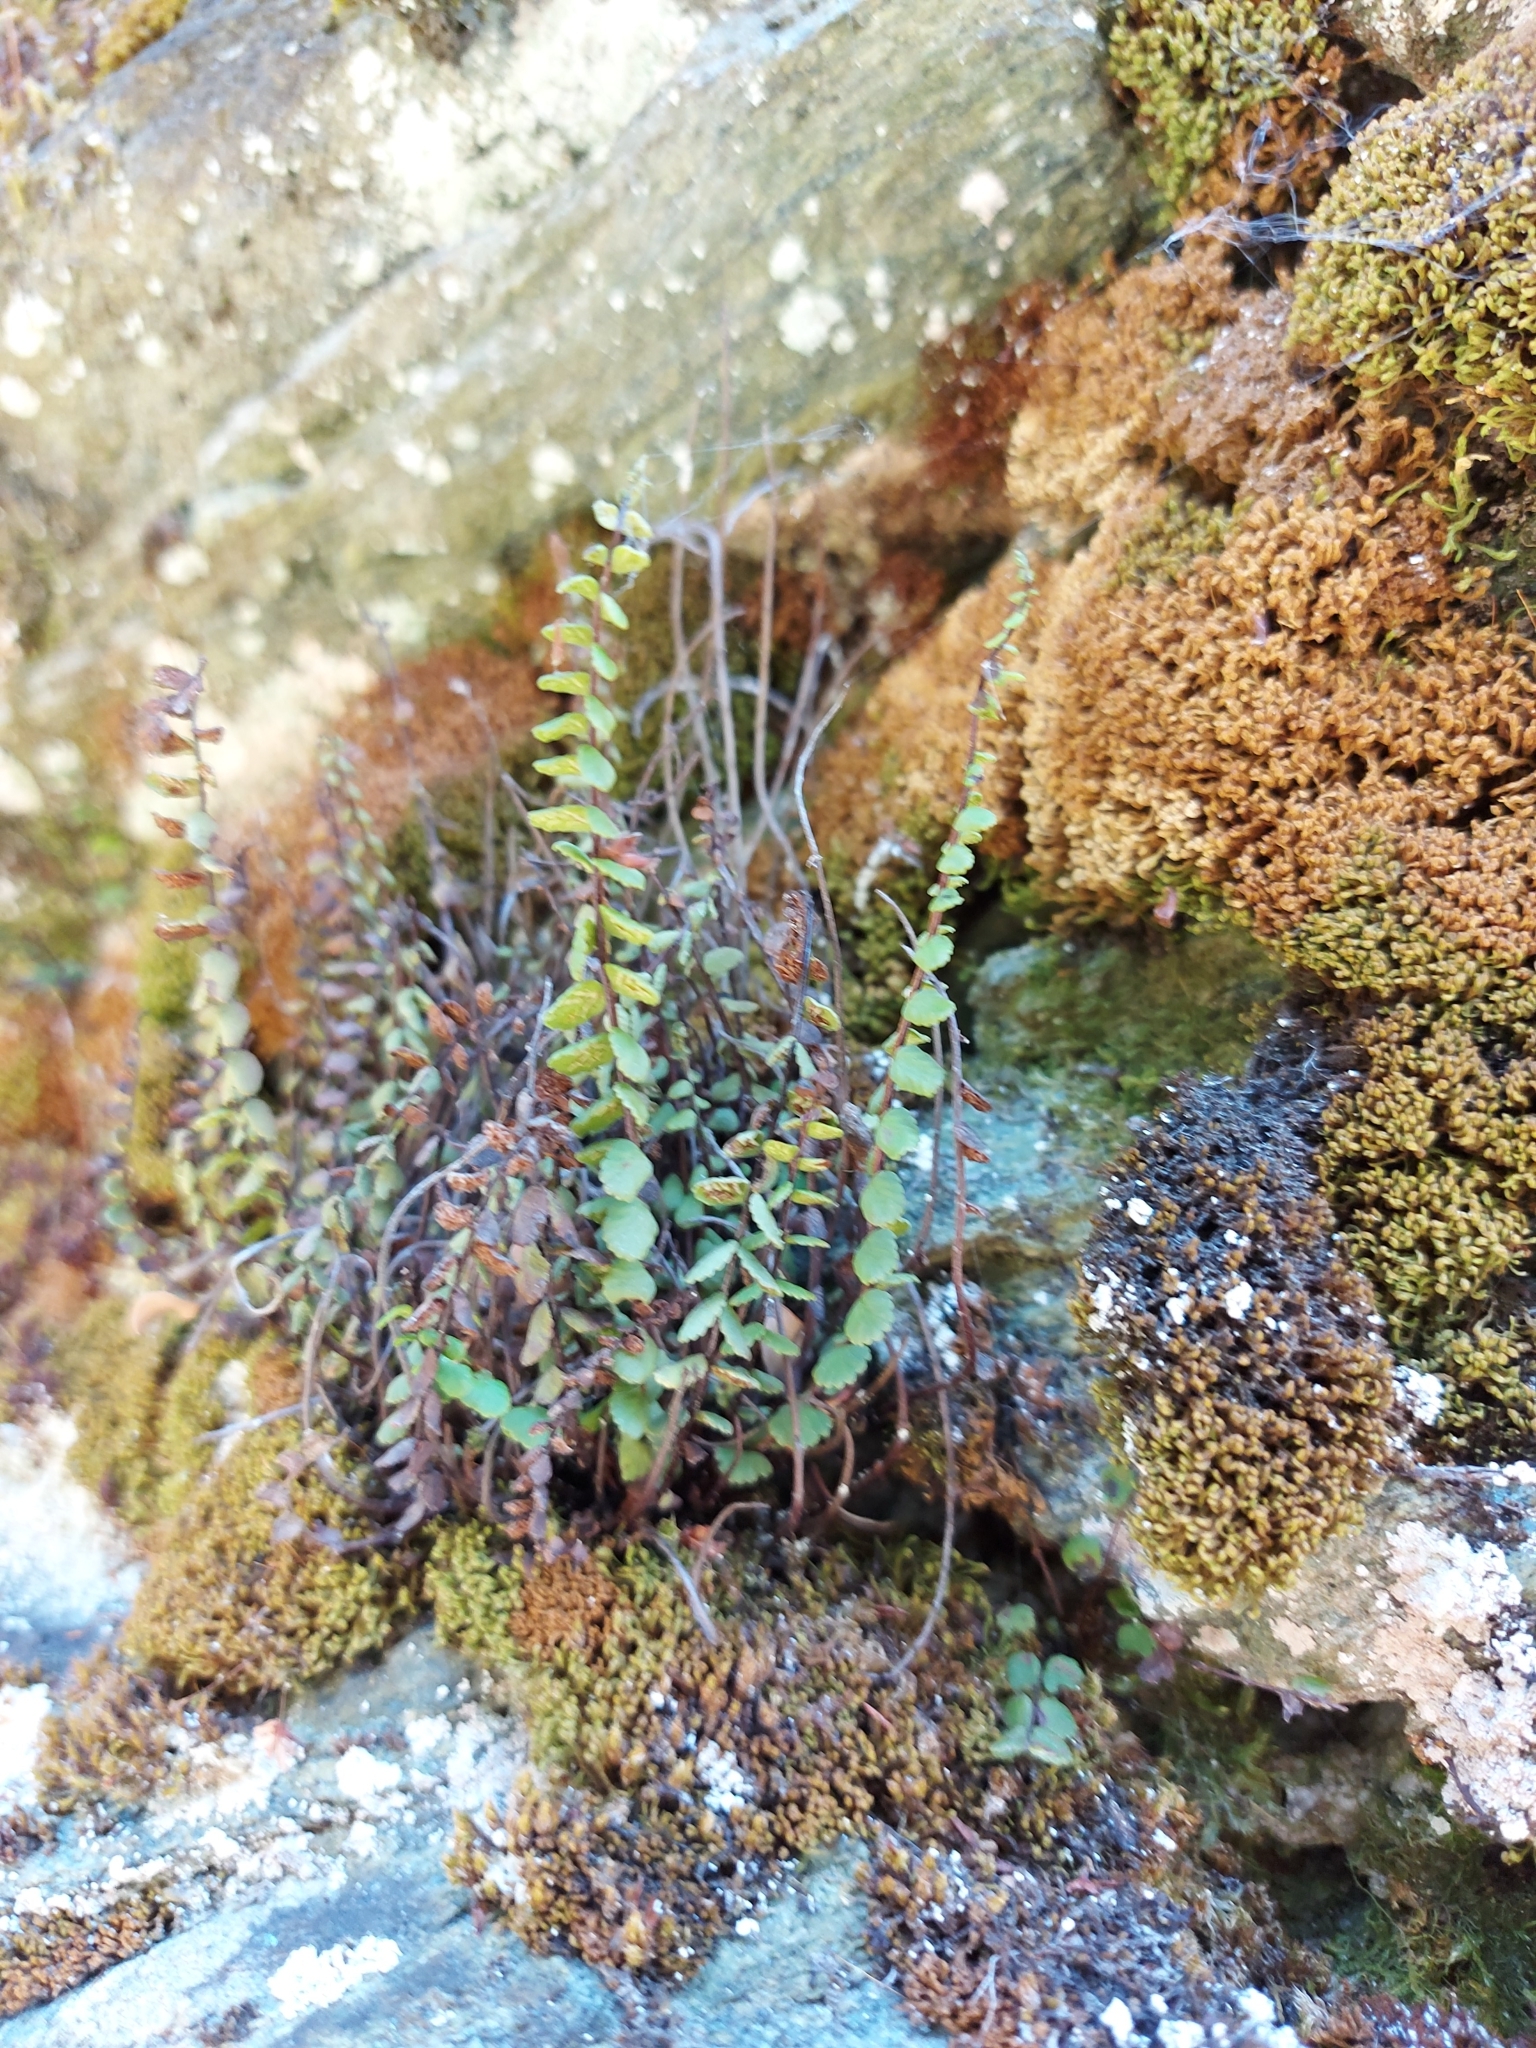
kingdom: Plantae
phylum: Tracheophyta
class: Polypodiopsida
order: Polypodiales
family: Aspleniaceae
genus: Asplenium
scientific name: Asplenium trichomanes
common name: Maidenhair spleenwort
